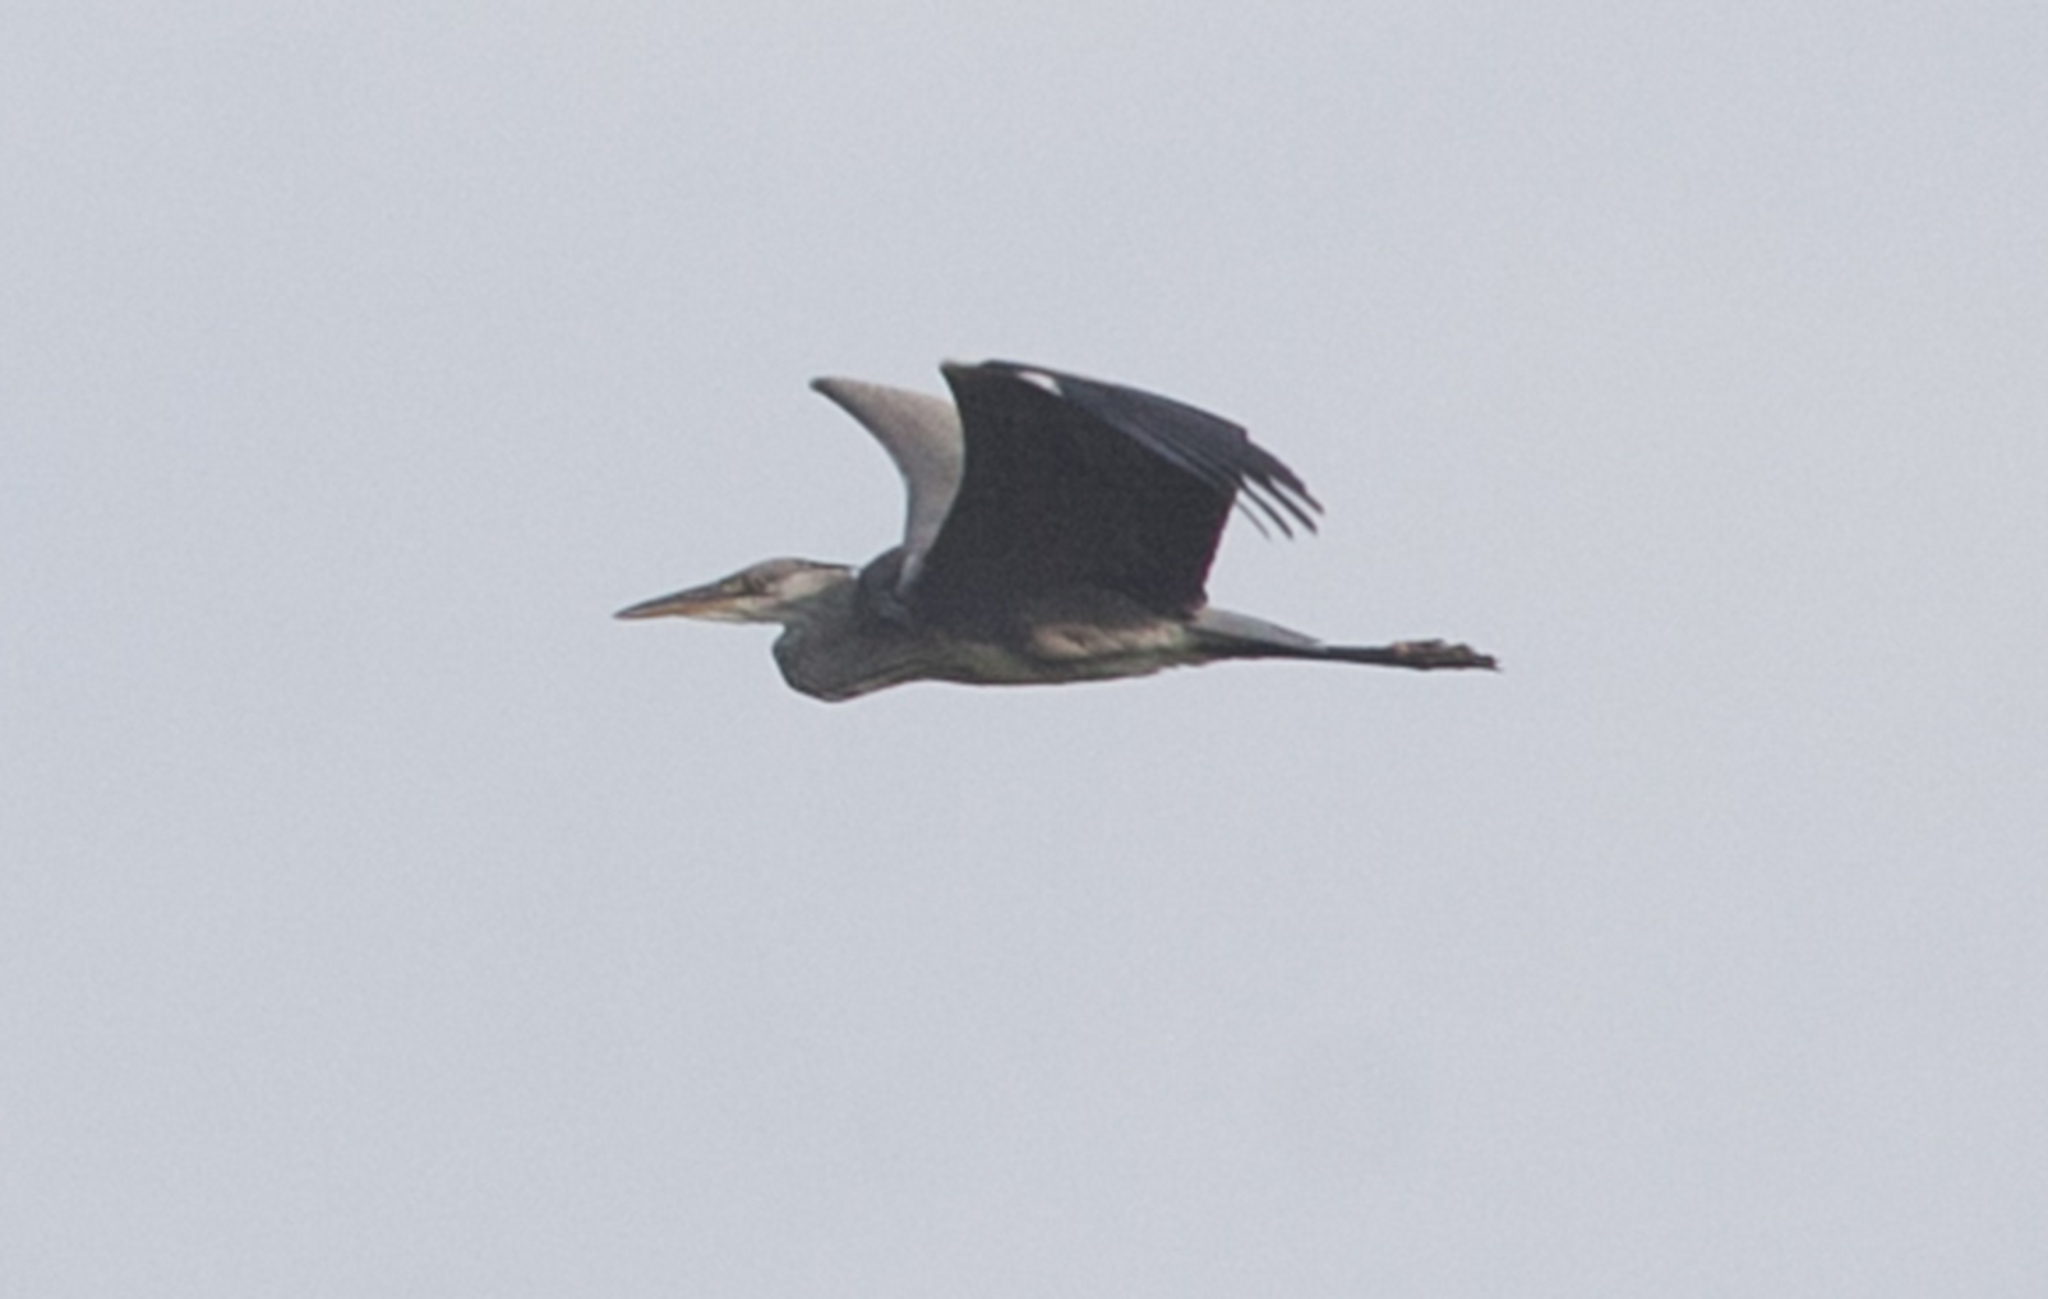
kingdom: Animalia
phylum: Chordata
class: Aves
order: Pelecaniformes
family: Ardeidae
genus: Ardea
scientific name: Ardea cinerea
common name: Grey heron
